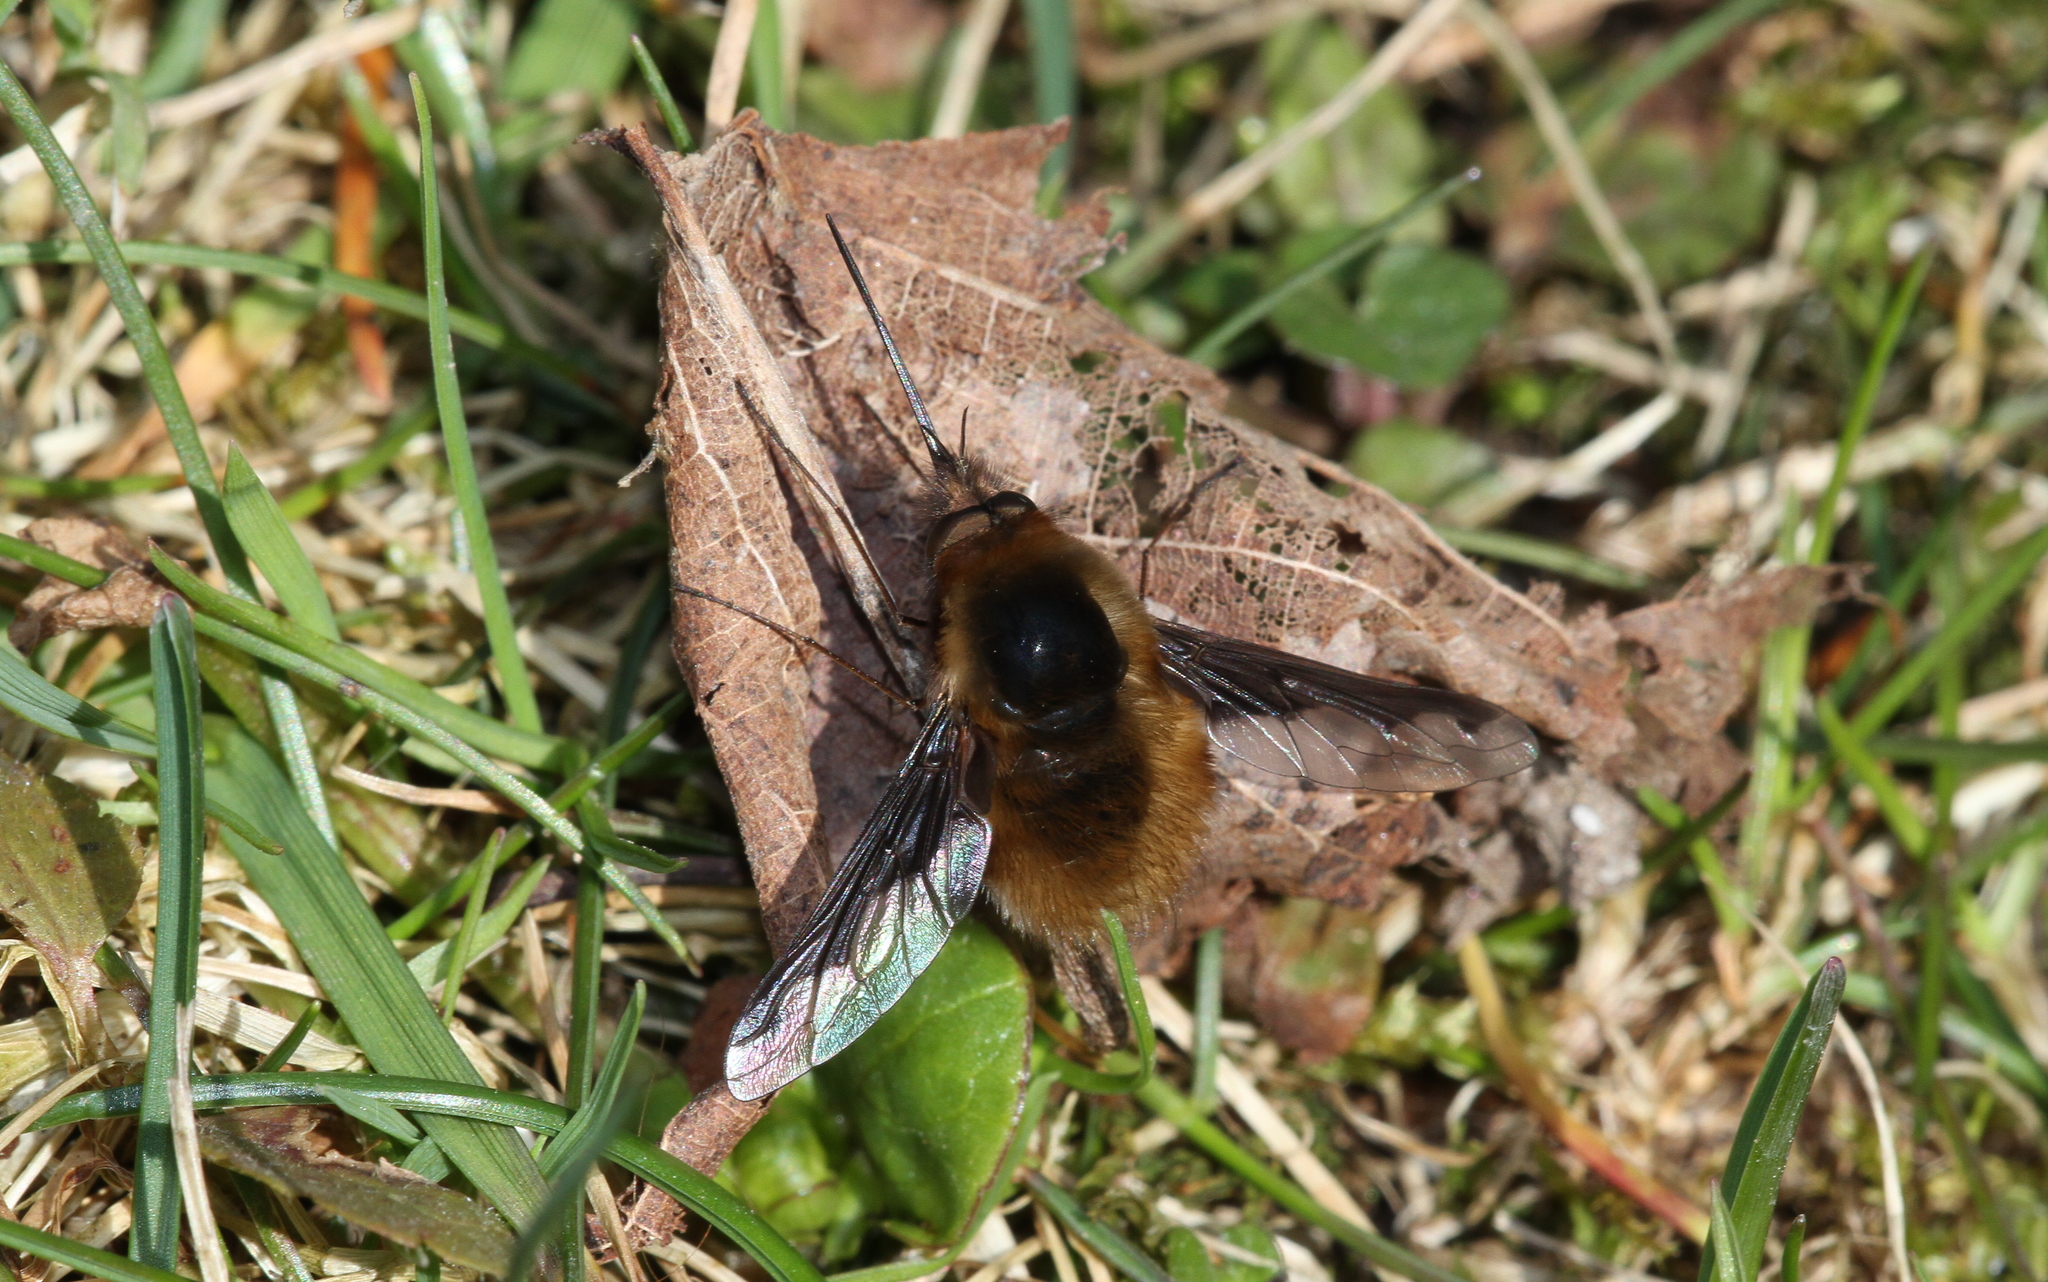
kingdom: Animalia
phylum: Arthropoda
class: Insecta
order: Diptera
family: Bombyliidae
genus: Bombylius
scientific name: Bombylius major
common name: Bee fly
